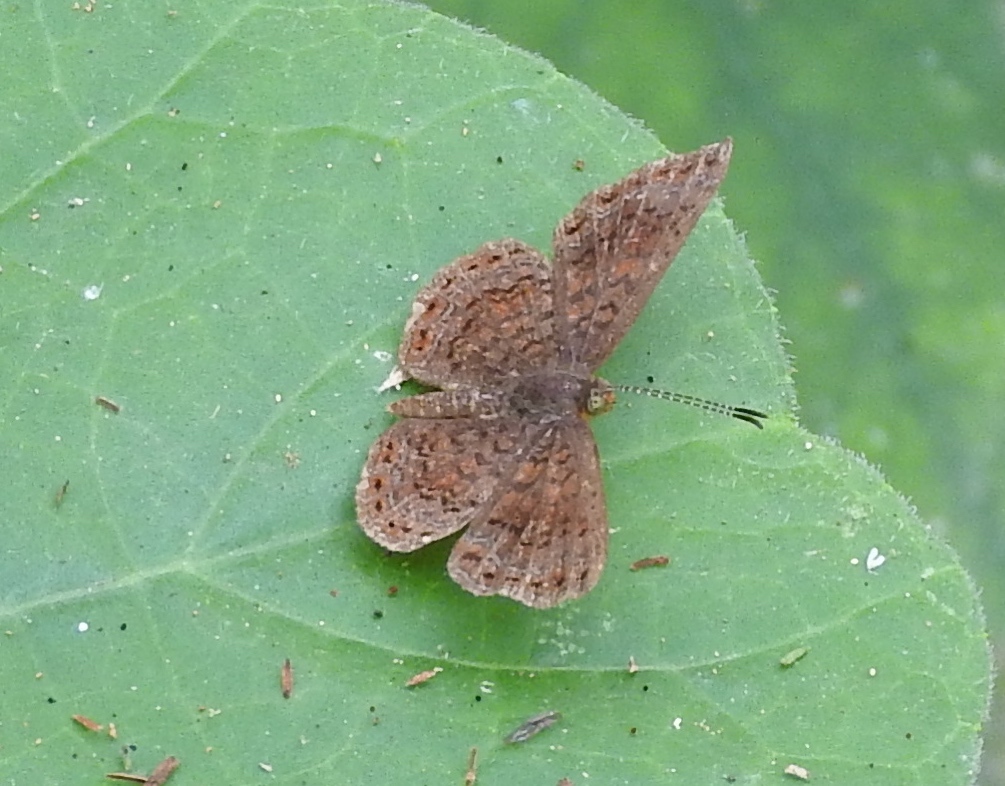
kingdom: Animalia
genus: Calephelis
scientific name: Calephelis
